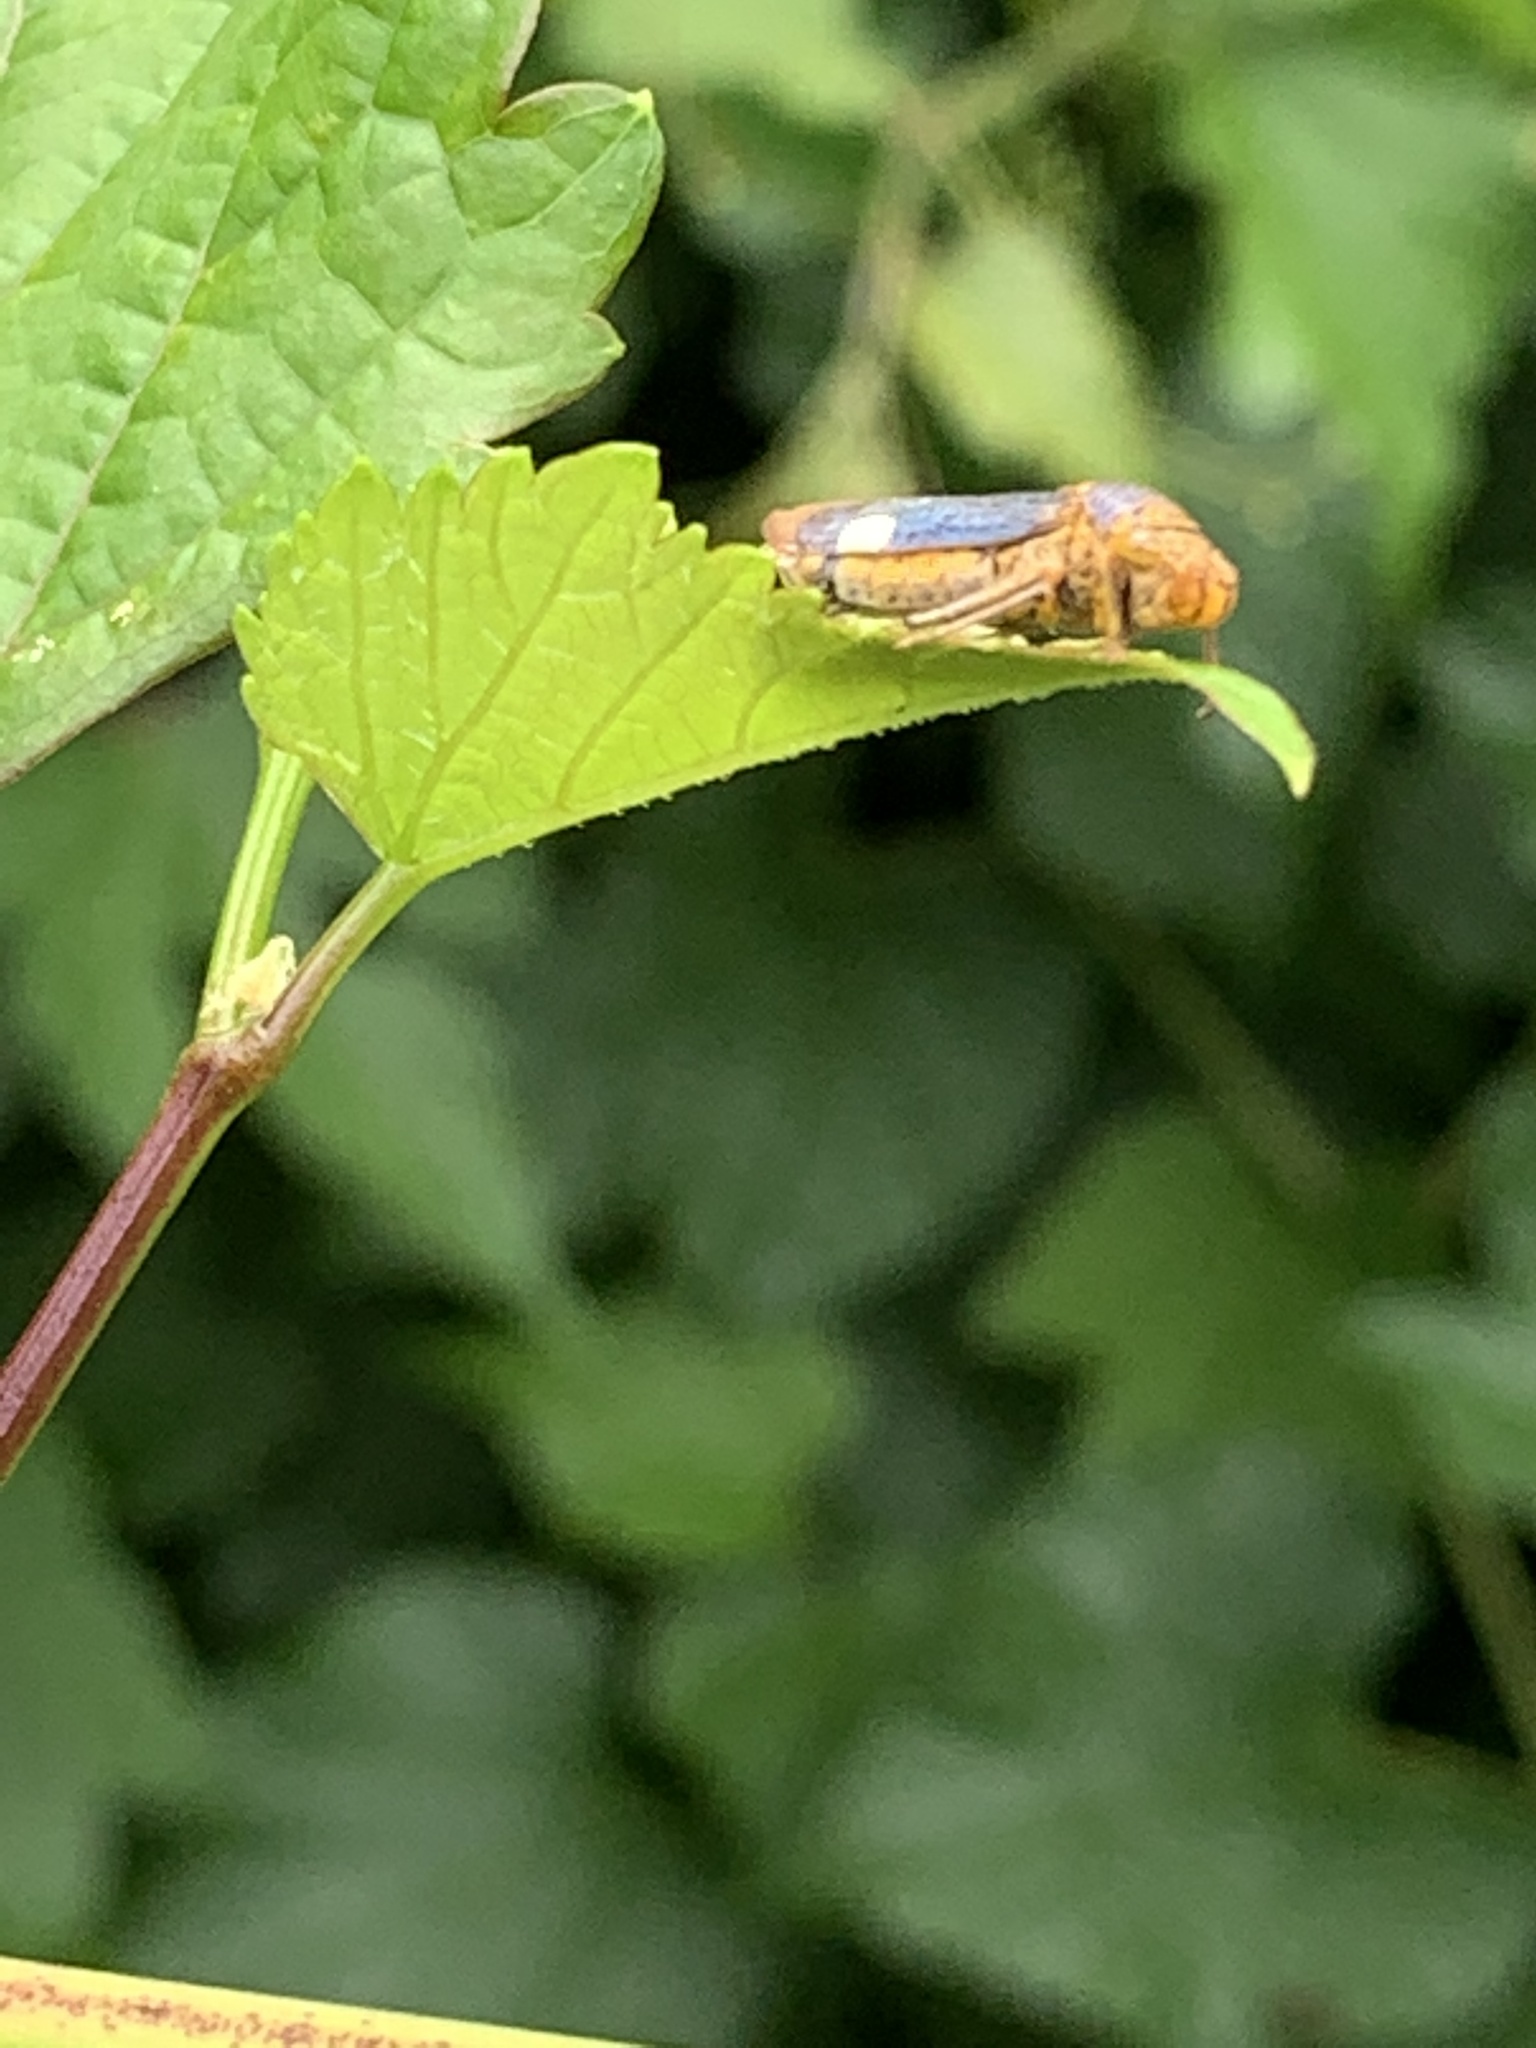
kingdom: Animalia
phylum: Arthropoda
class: Insecta
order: Hemiptera
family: Cicadellidae
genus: Oncometopia
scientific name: Oncometopia orbona
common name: Broad-headed sharpshooter
